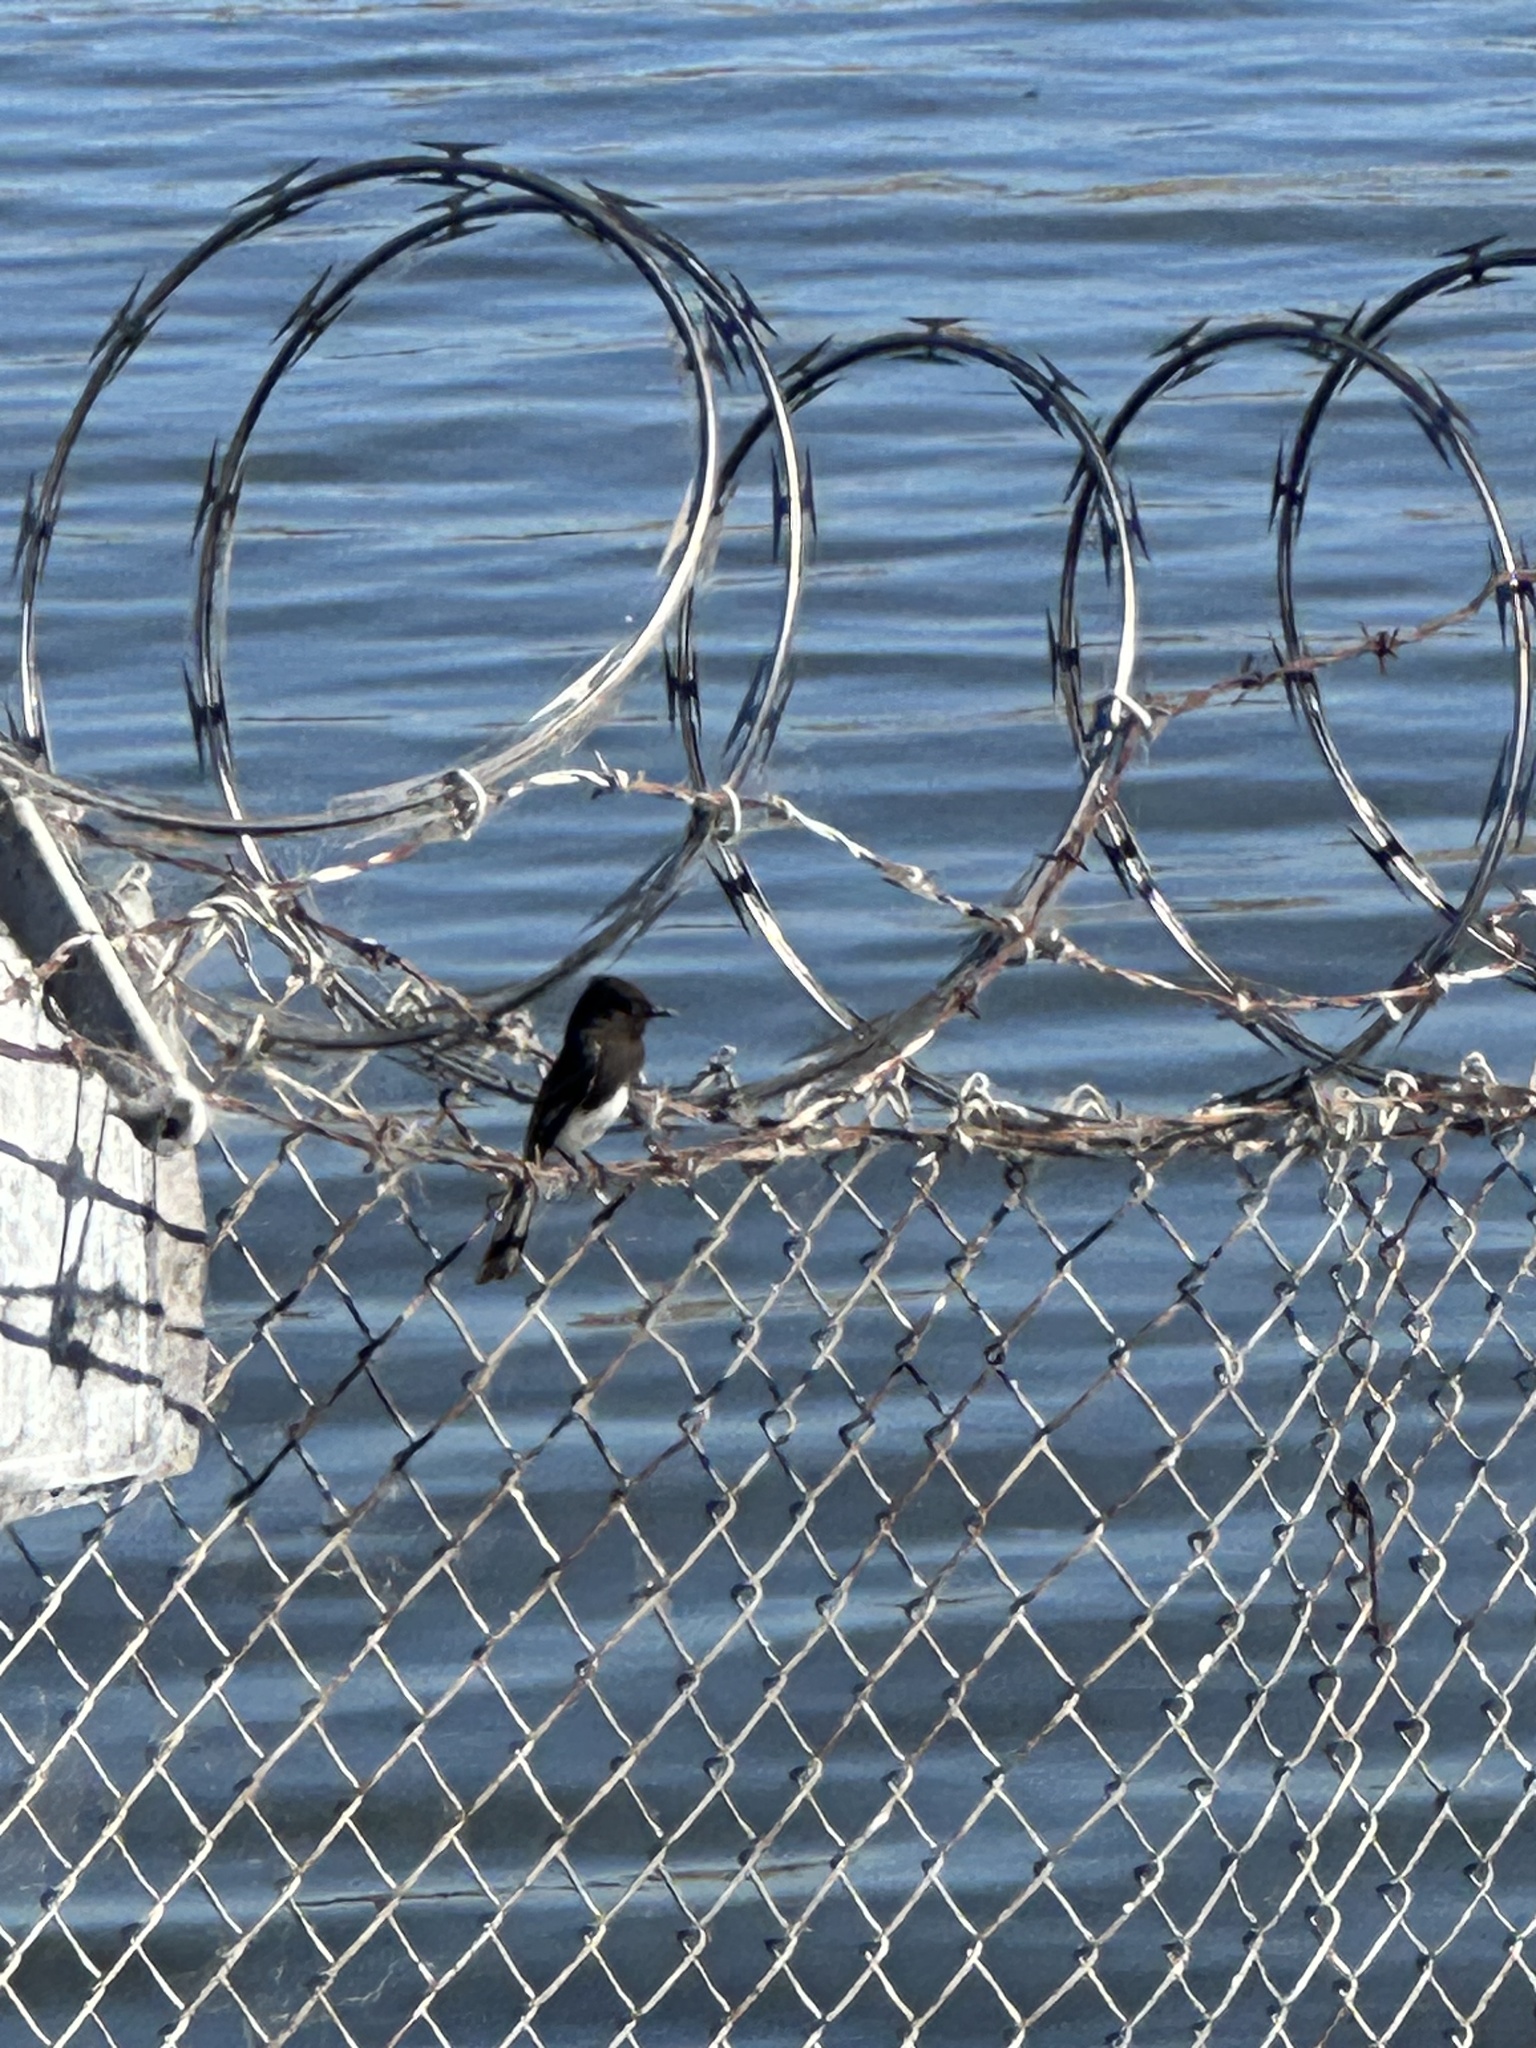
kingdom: Animalia
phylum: Chordata
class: Aves
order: Passeriformes
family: Tyrannidae
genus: Sayornis
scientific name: Sayornis nigricans
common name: Black phoebe
